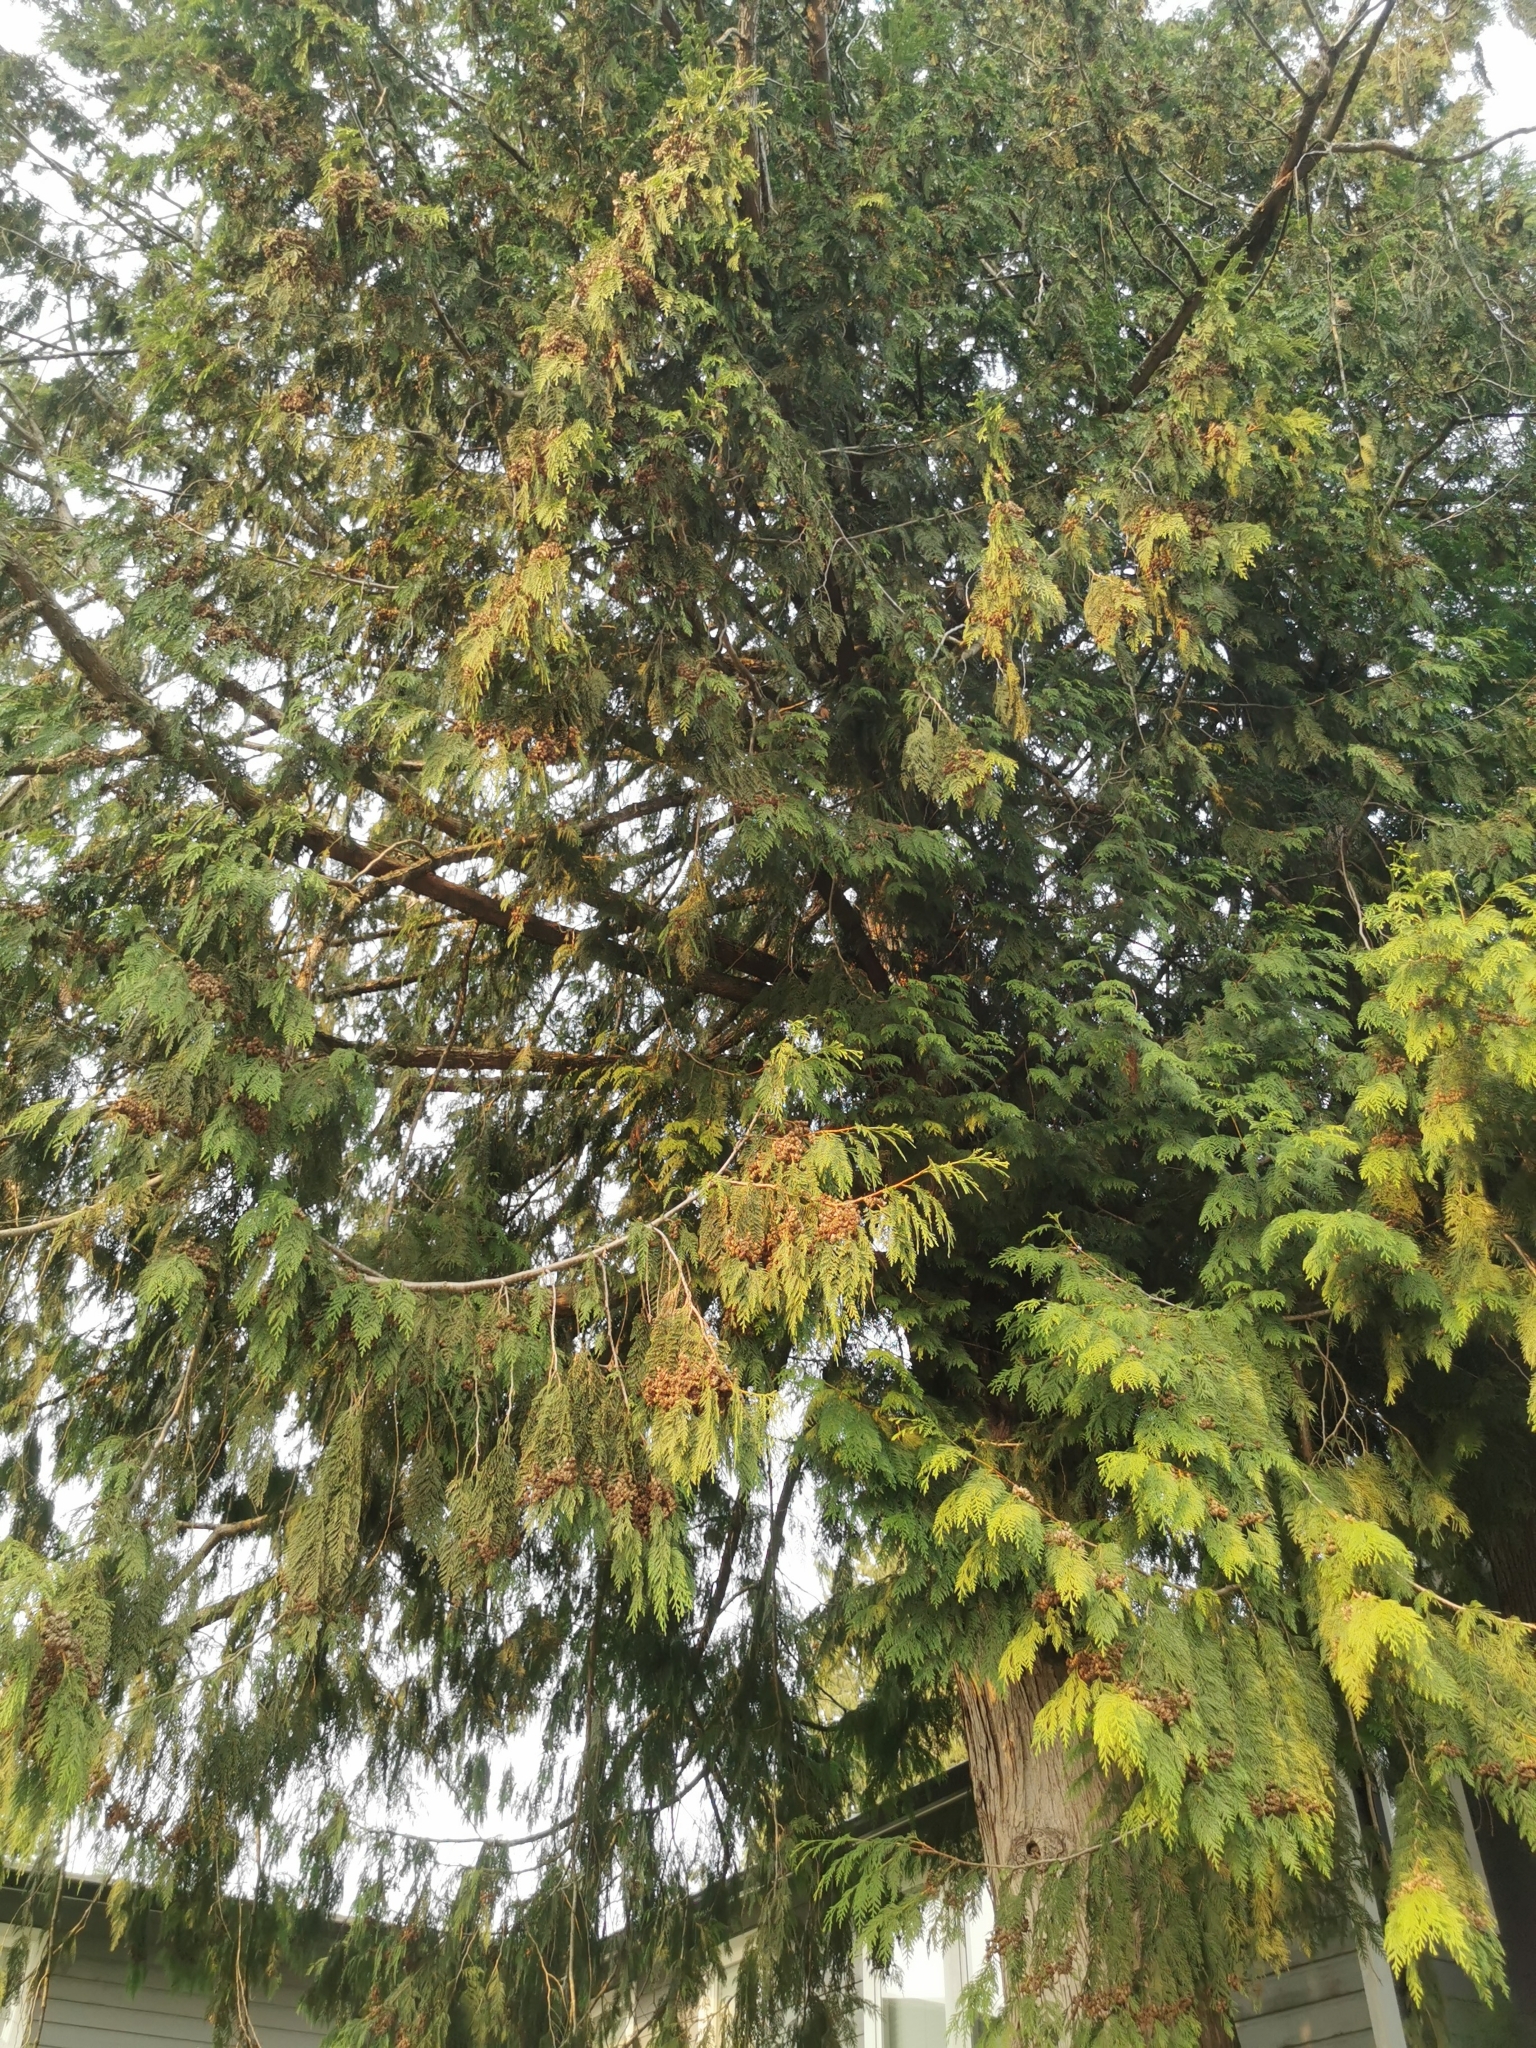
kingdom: Plantae
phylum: Tracheophyta
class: Pinopsida
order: Pinales
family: Cupressaceae
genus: Thuja
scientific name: Thuja plicata
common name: Western red-cedar
